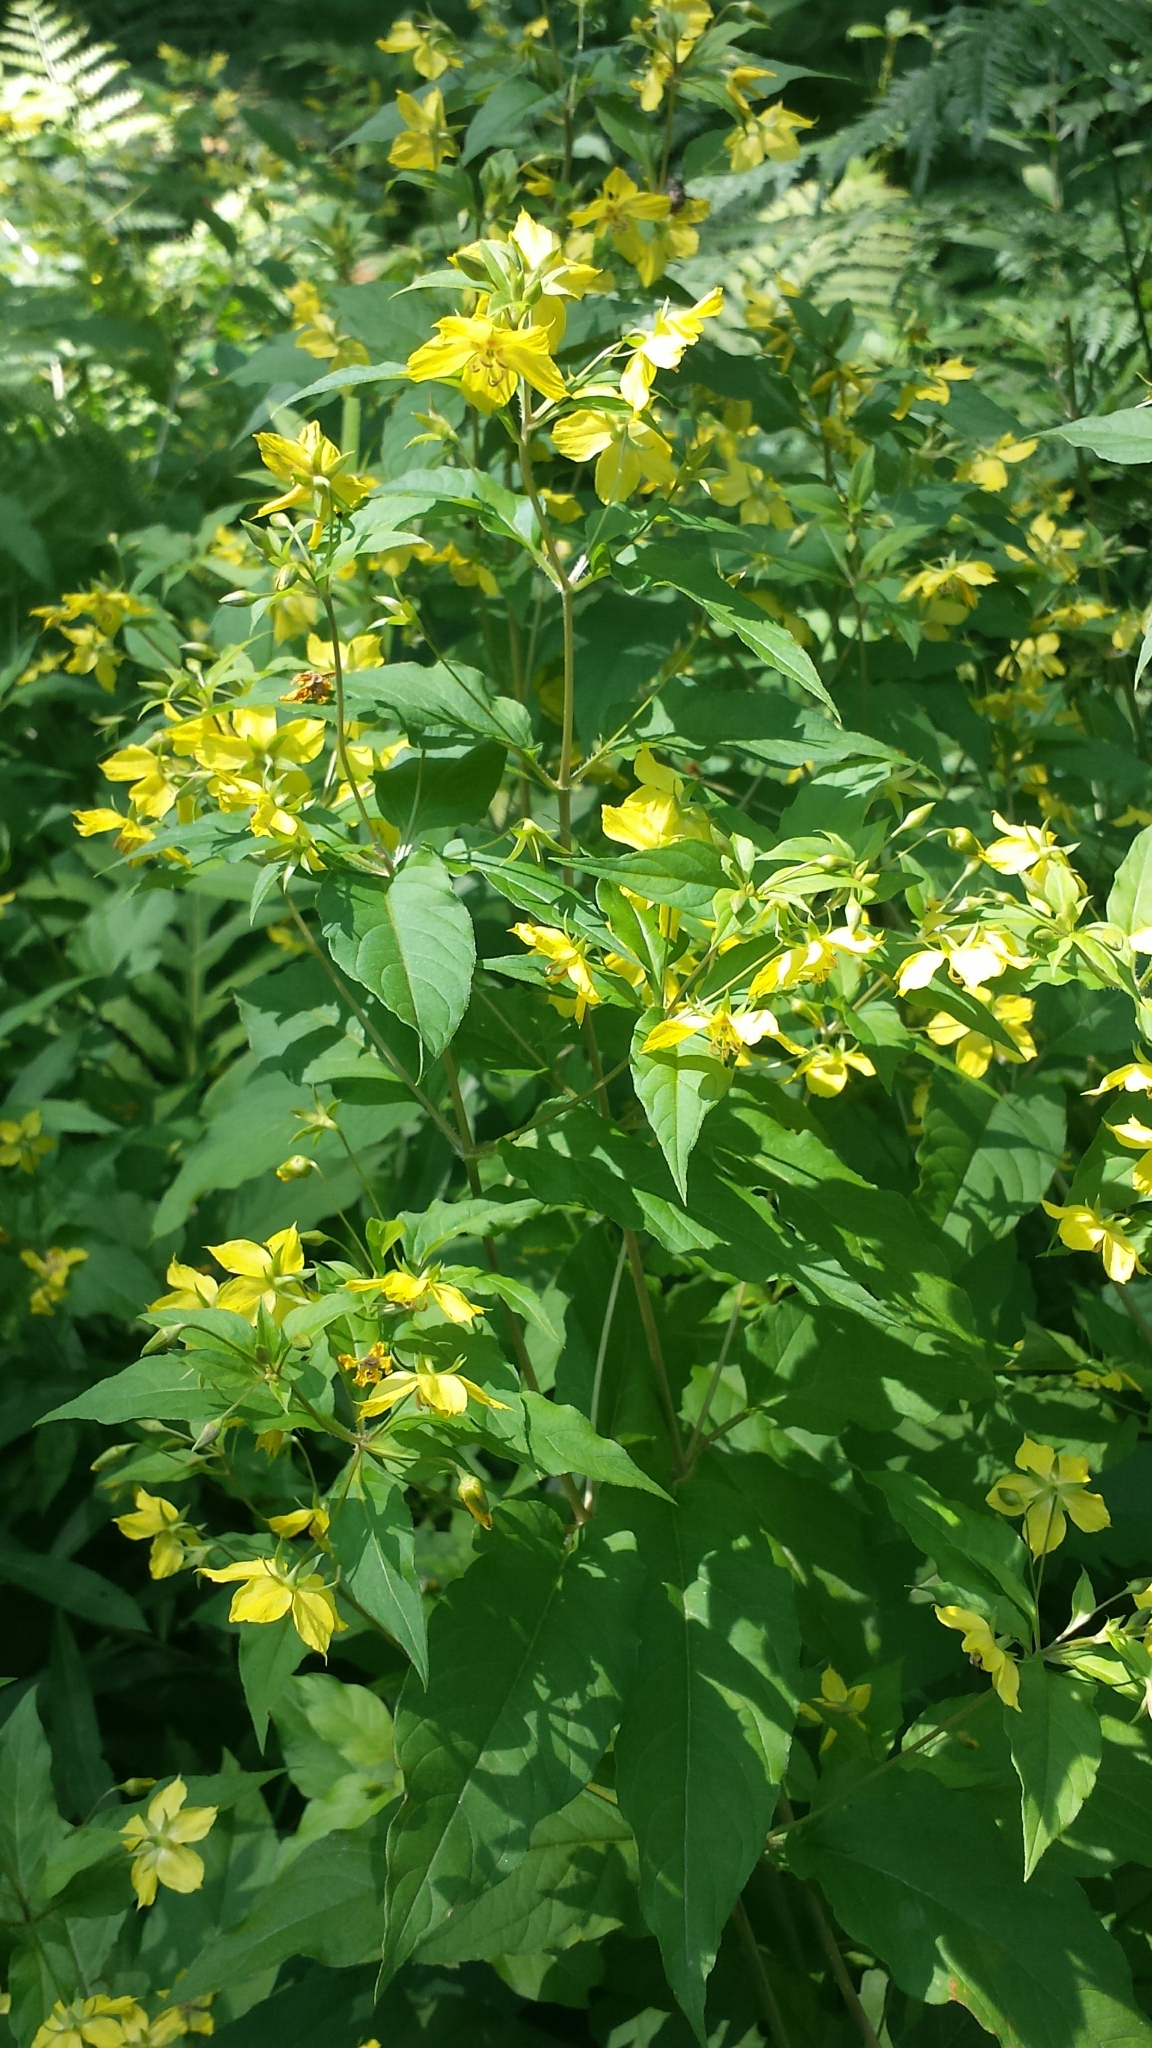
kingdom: Plantae
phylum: Tracheophyta
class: Magnoliopsida
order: Ericales
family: Primulaceae
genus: Lysimachia
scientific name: Lysimachia ciliata
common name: Fringed loosestrife
